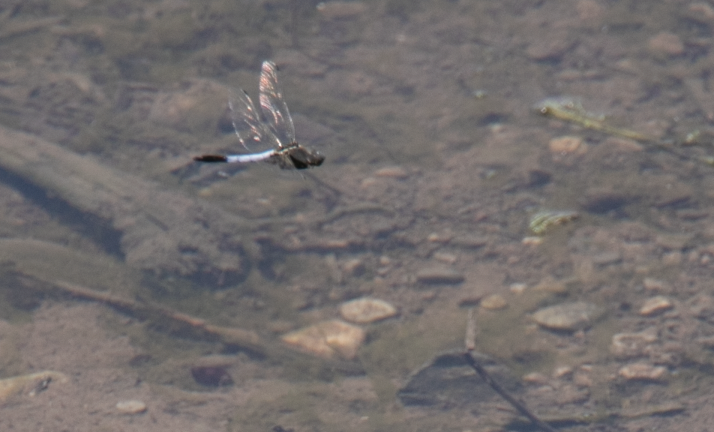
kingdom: Animalia
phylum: Arthropoda
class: Insecta
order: Odonata
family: Libellulidae
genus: Orthetrum
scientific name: Orthetrum cancellatum
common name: Black-tailed skimmer
